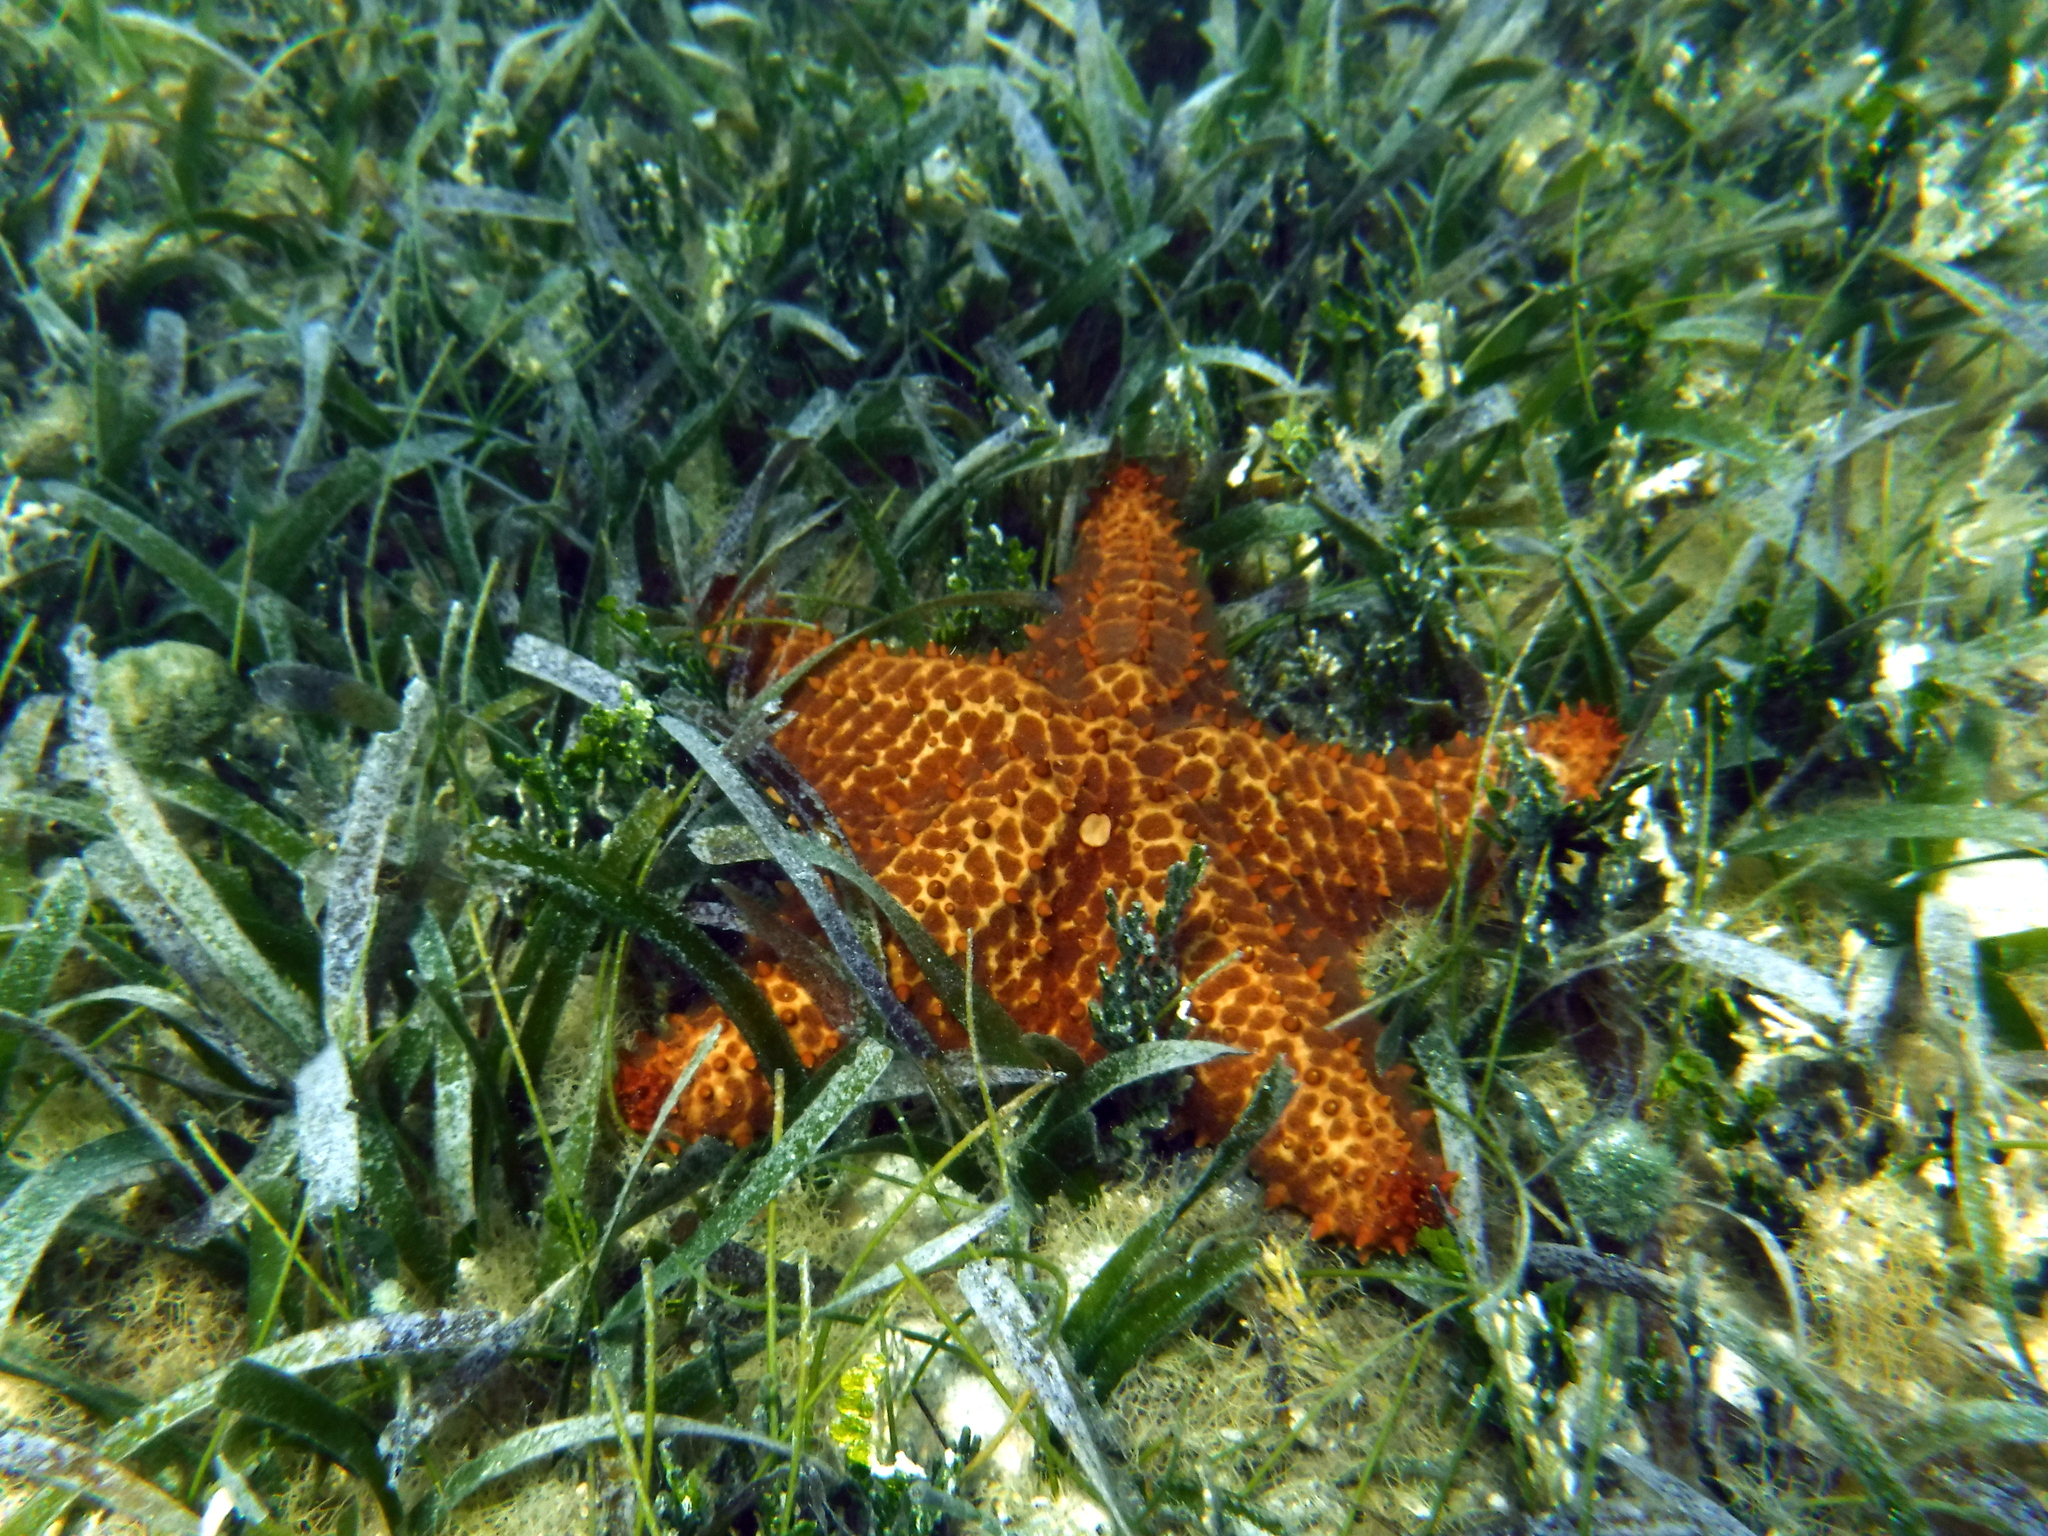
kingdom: Animalia
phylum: Echinodermata
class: Asteroidea
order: Valvatida
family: Oreasteridae
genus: Oreaster
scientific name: Oreaster reticulatus
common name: Cushion sea star
